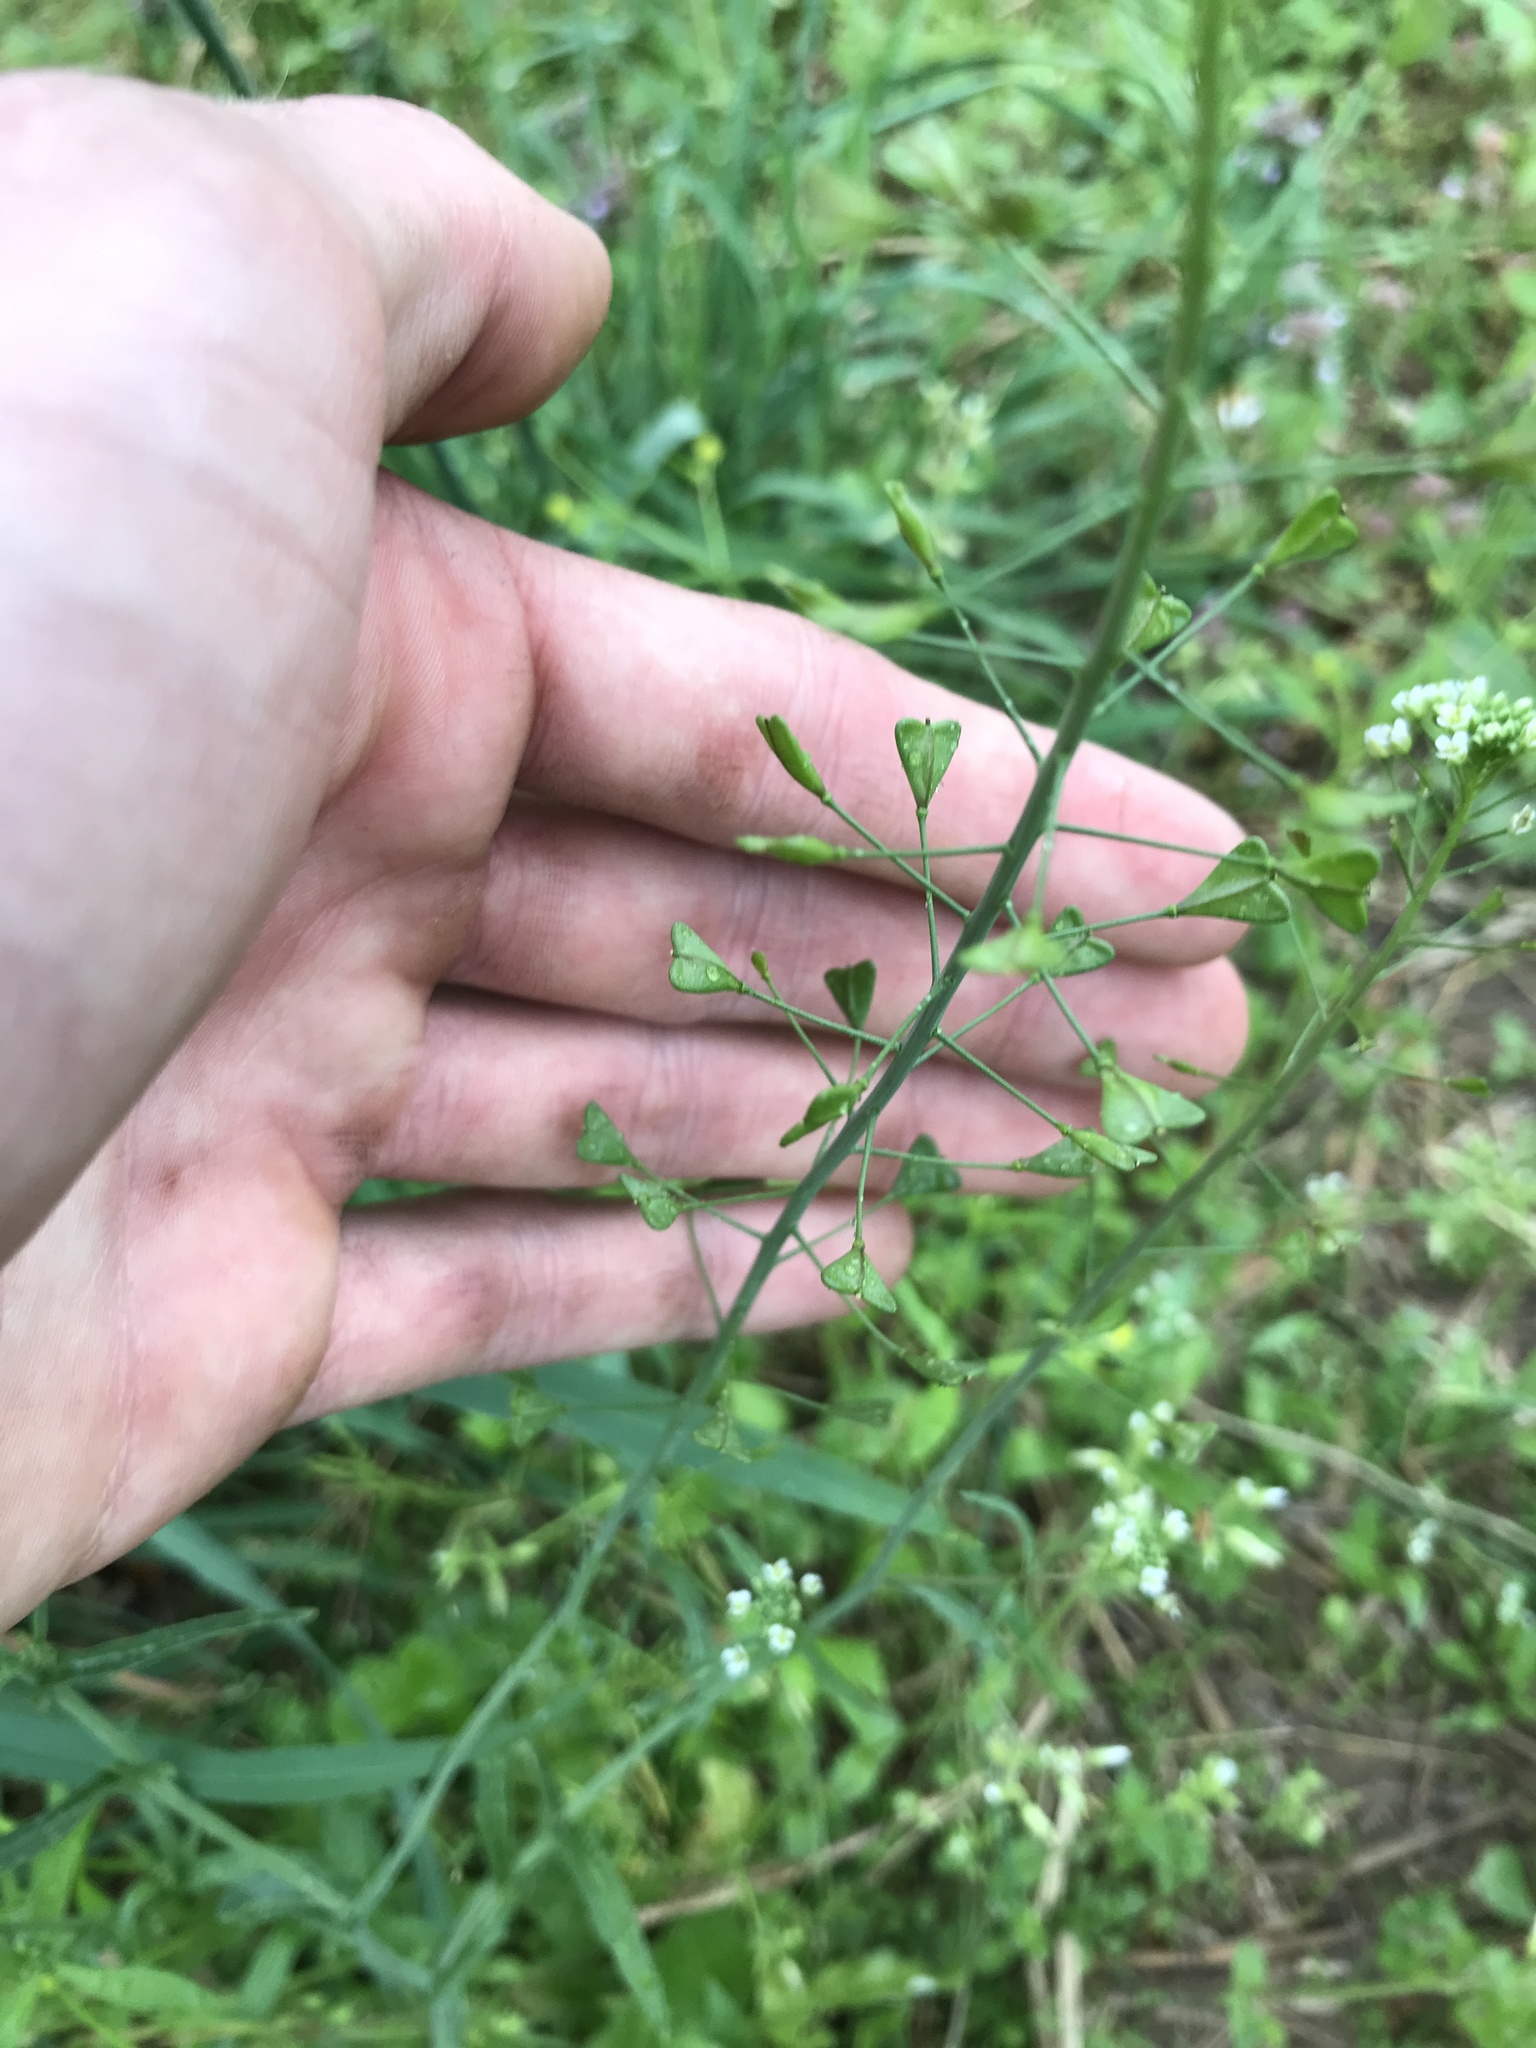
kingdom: Plantae
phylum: Tracheophyta
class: Magnoliopsida
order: Brassicales
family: Brassicaceae
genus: Capsella
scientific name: Capsella bursa-pastoris
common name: Shepherd's purse
